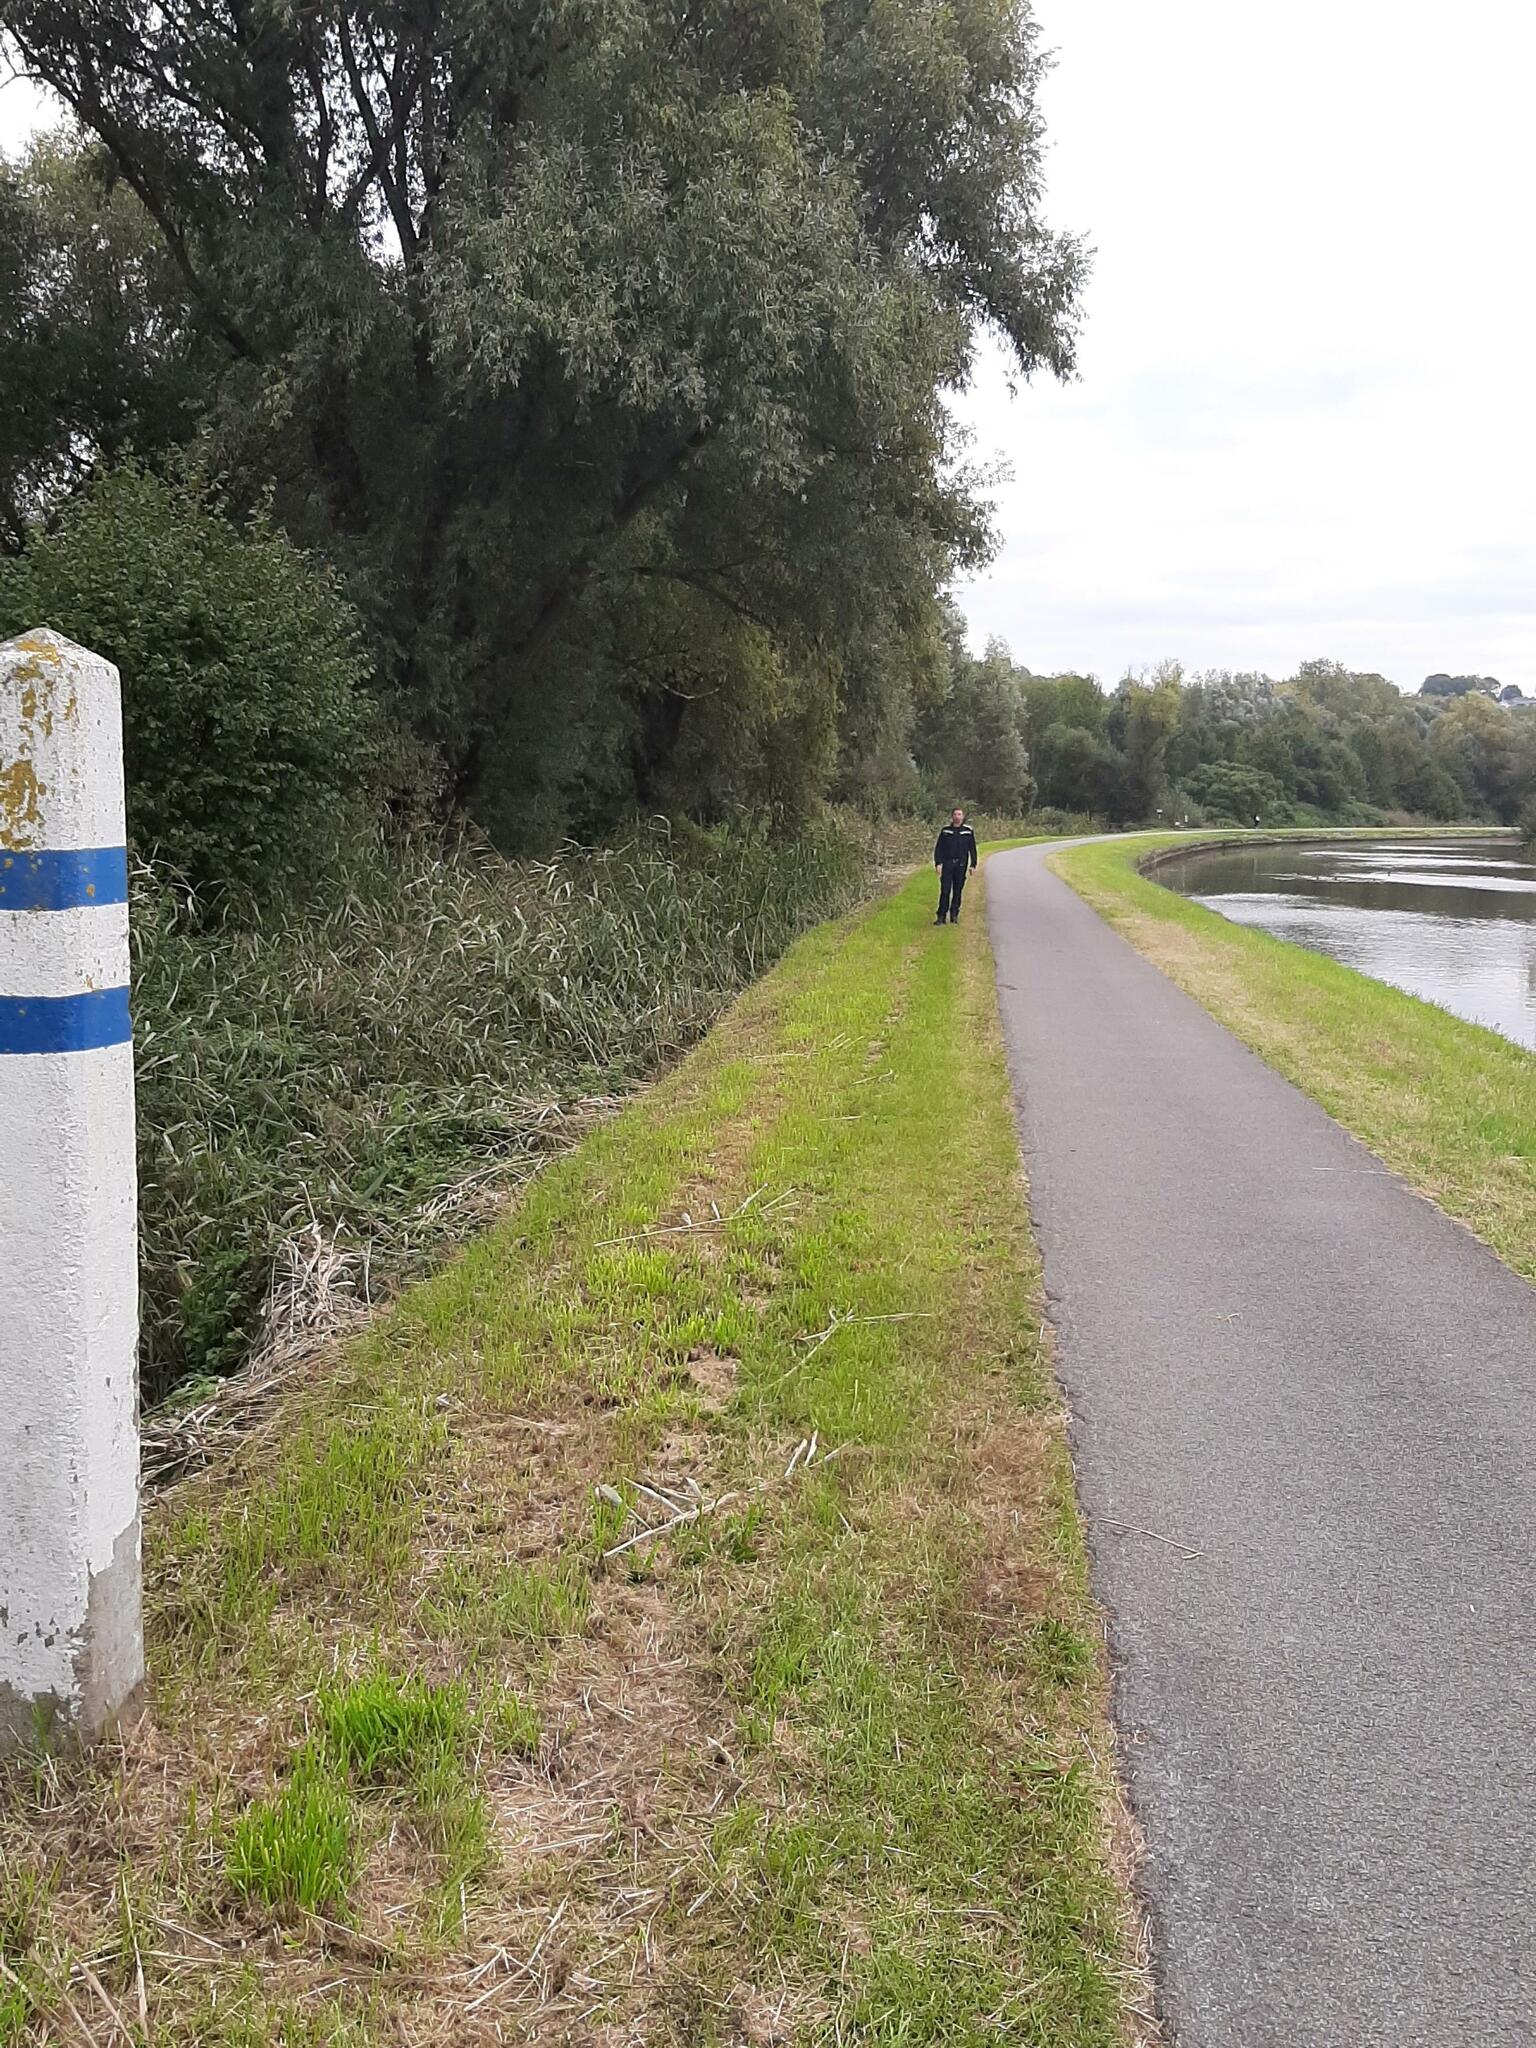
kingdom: Animalia
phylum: Arthropoda
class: Insecta
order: Hymenoptera
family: Vespidae
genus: Vespa
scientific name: Vespa velutina
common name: Asian hornet
